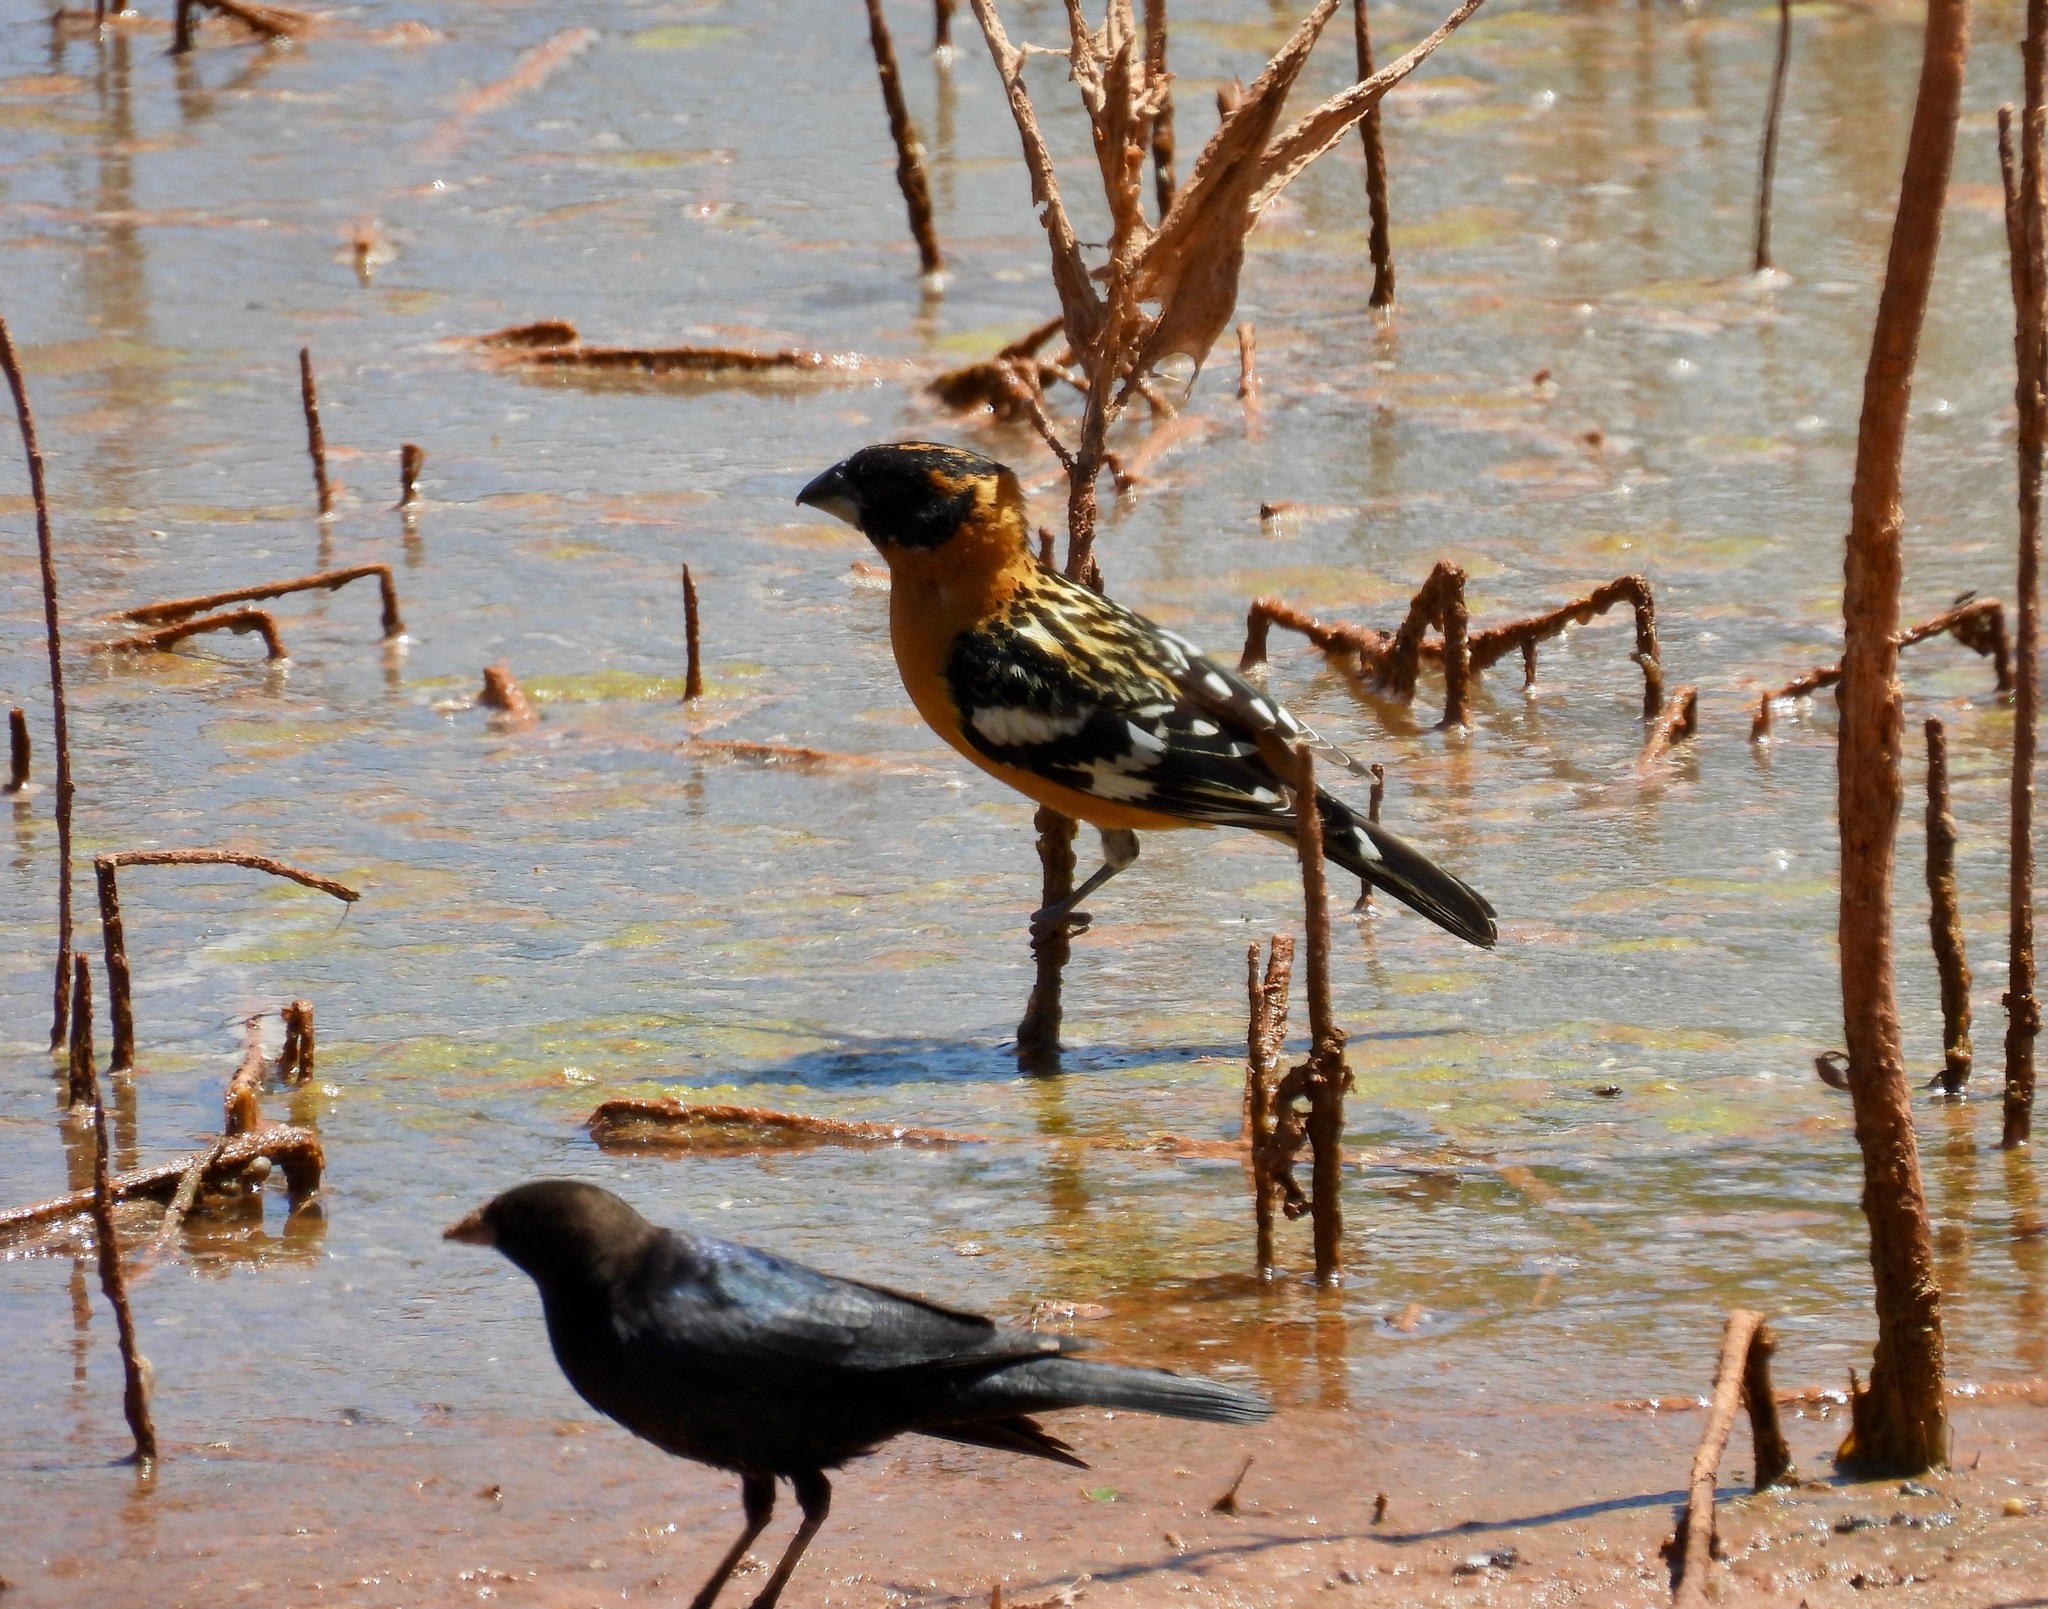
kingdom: Animalia
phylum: Chordata
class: Aves
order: Passeriformes
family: Cardinalidae
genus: Pheucticus
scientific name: Pheucticus melanocephalus
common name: Black-headed grosbeak
